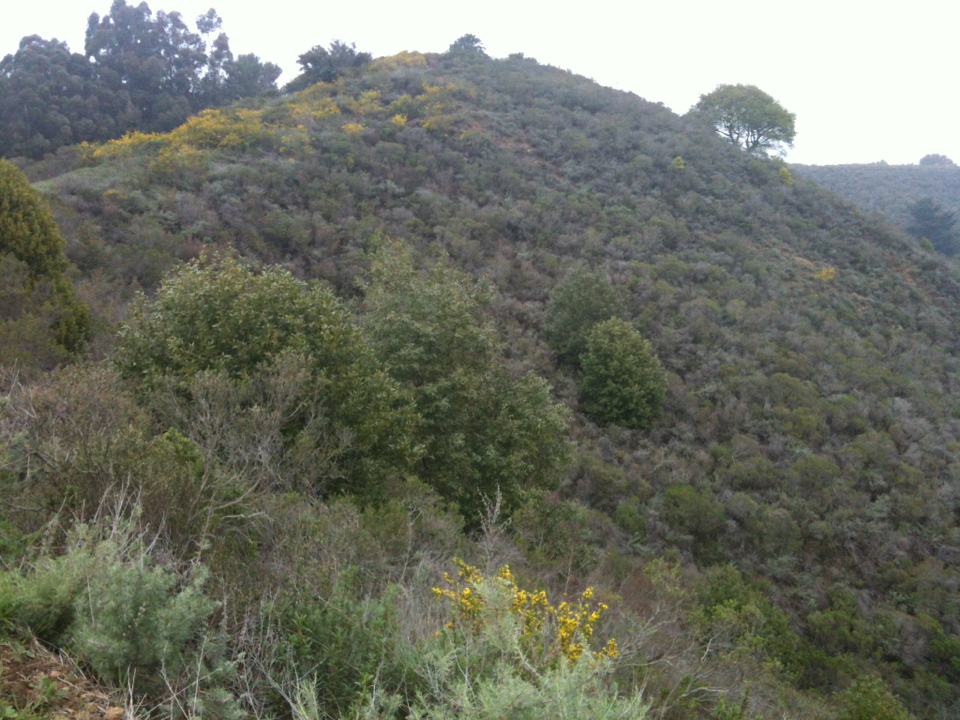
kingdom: Plantae
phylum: Tracheophyta
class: Magnoliopsida
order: Asterales
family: Asteraceae
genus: Baccharis
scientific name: Baccharis pilularis
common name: Coyotebrush
